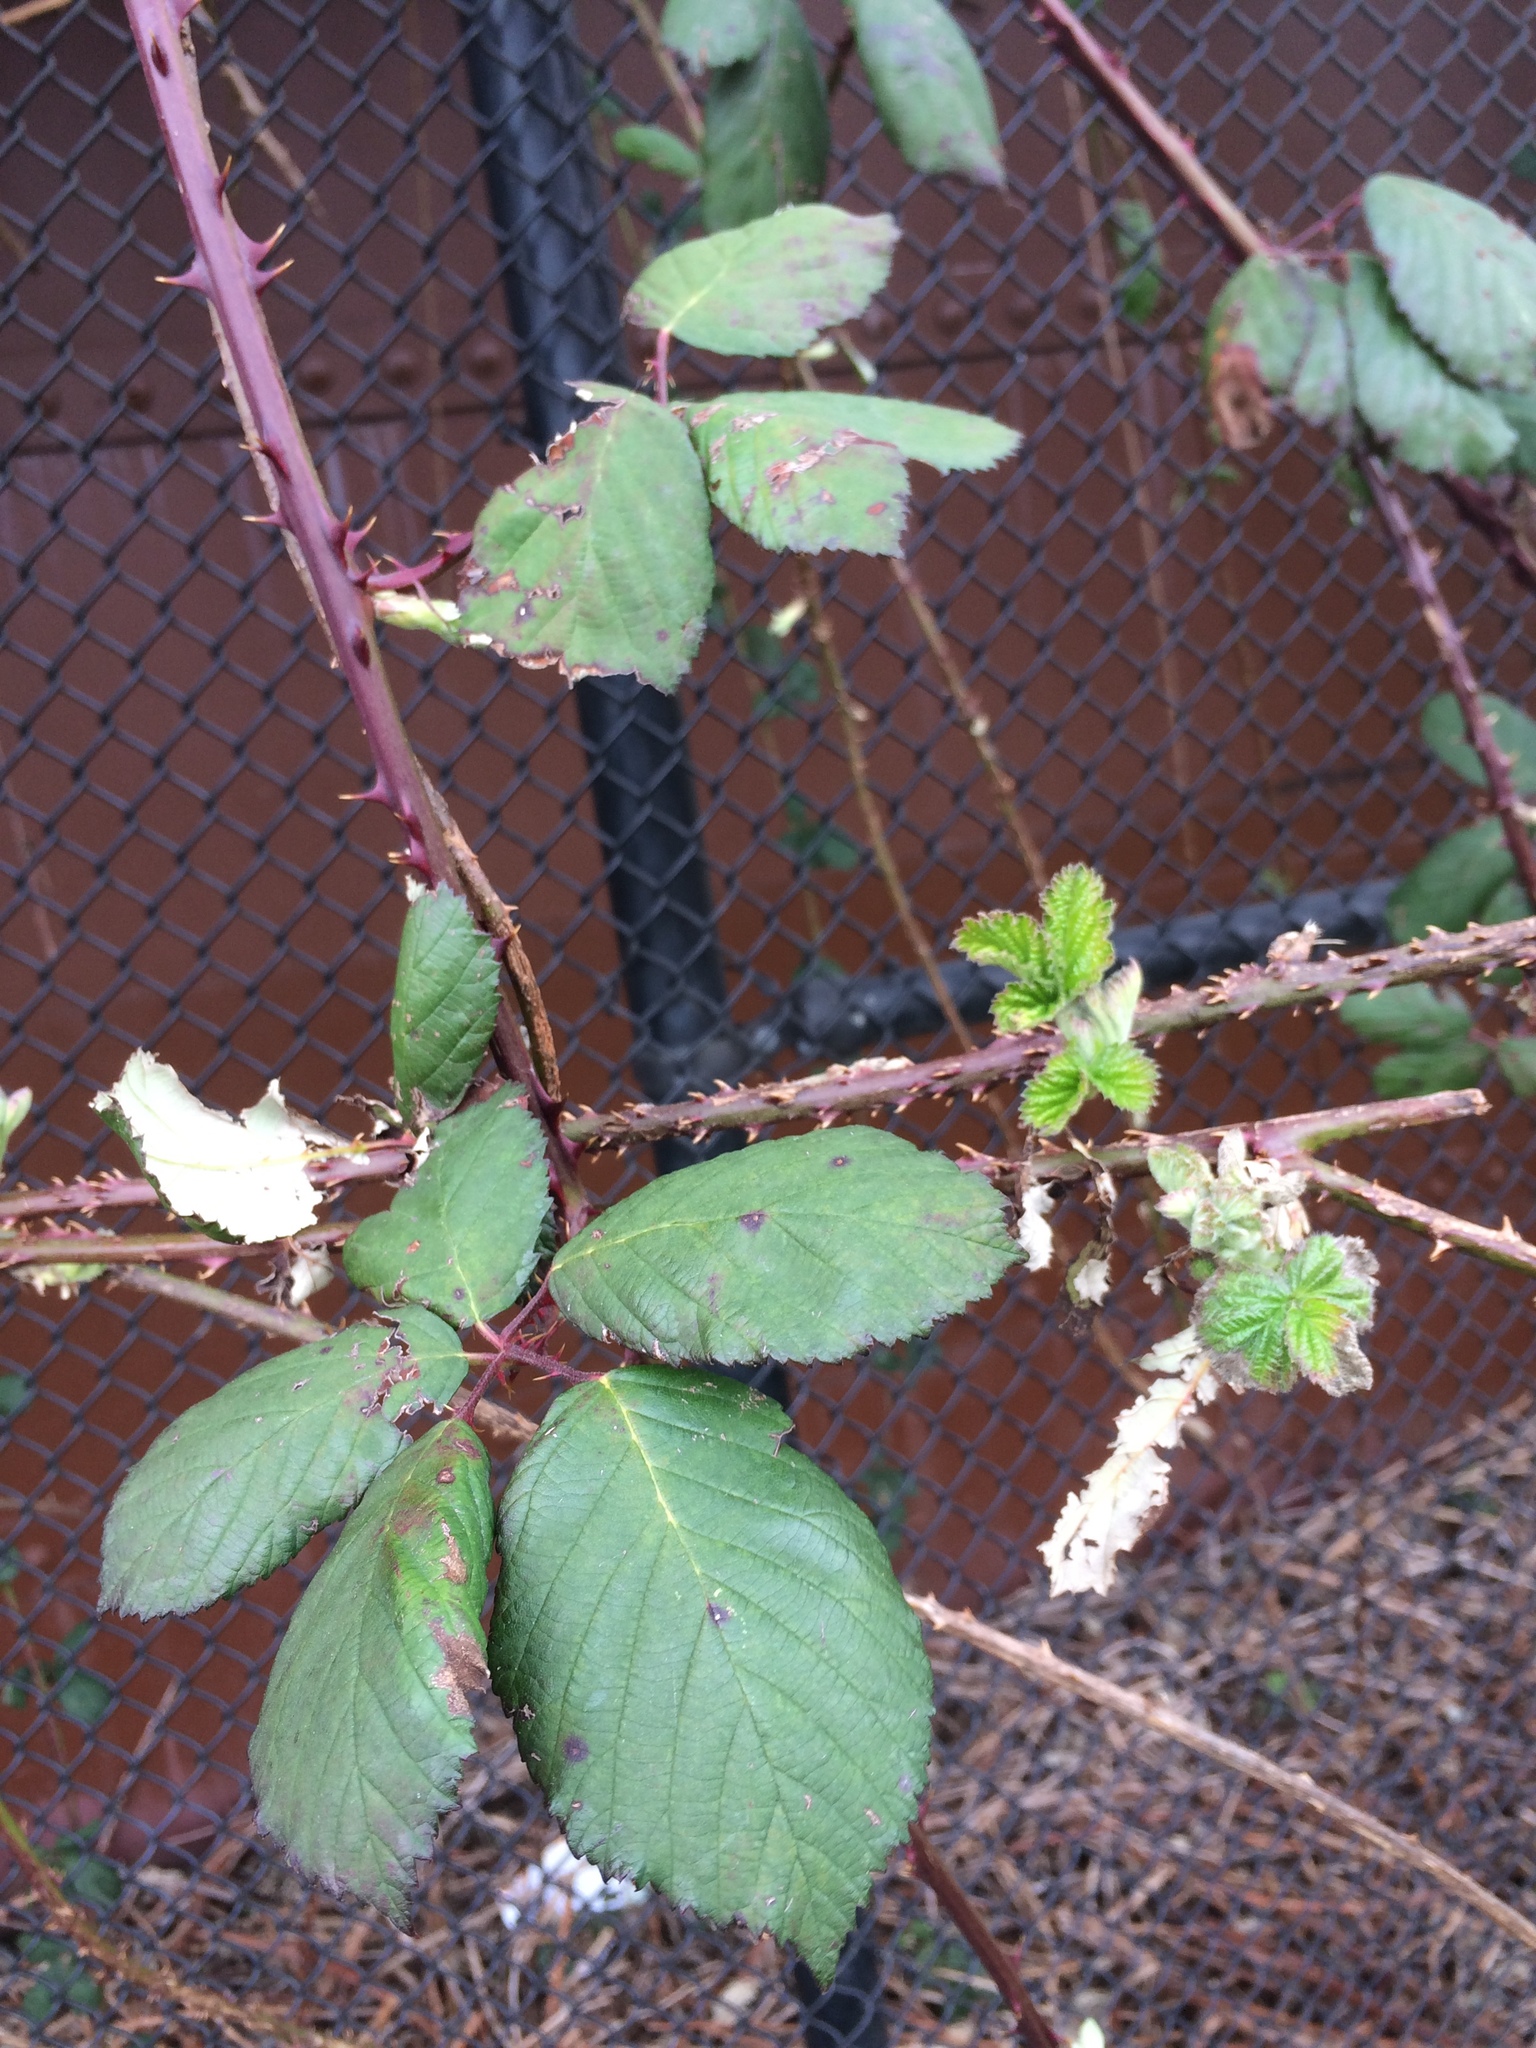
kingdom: Plantae
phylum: Tracheophyta
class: Magnoliopsida
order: Rosales
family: Rosaceae
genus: Rubus
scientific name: Rubus armeniacus
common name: Himalayan blackberry
